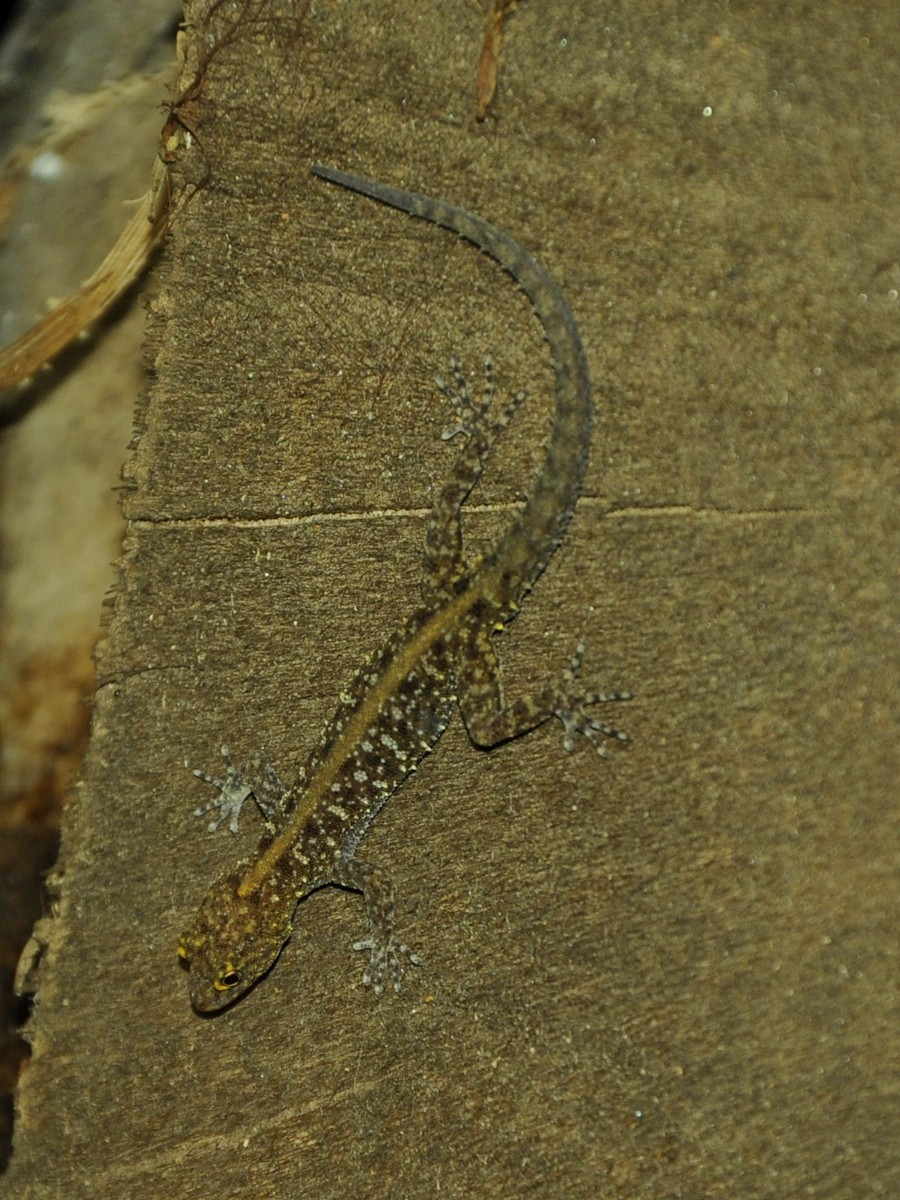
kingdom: Animalia
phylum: Chordata
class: Squamata
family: Gekkonidae
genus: Cnemaspis
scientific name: Cnemaspis mysoriensis
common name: Mysore day gecko
